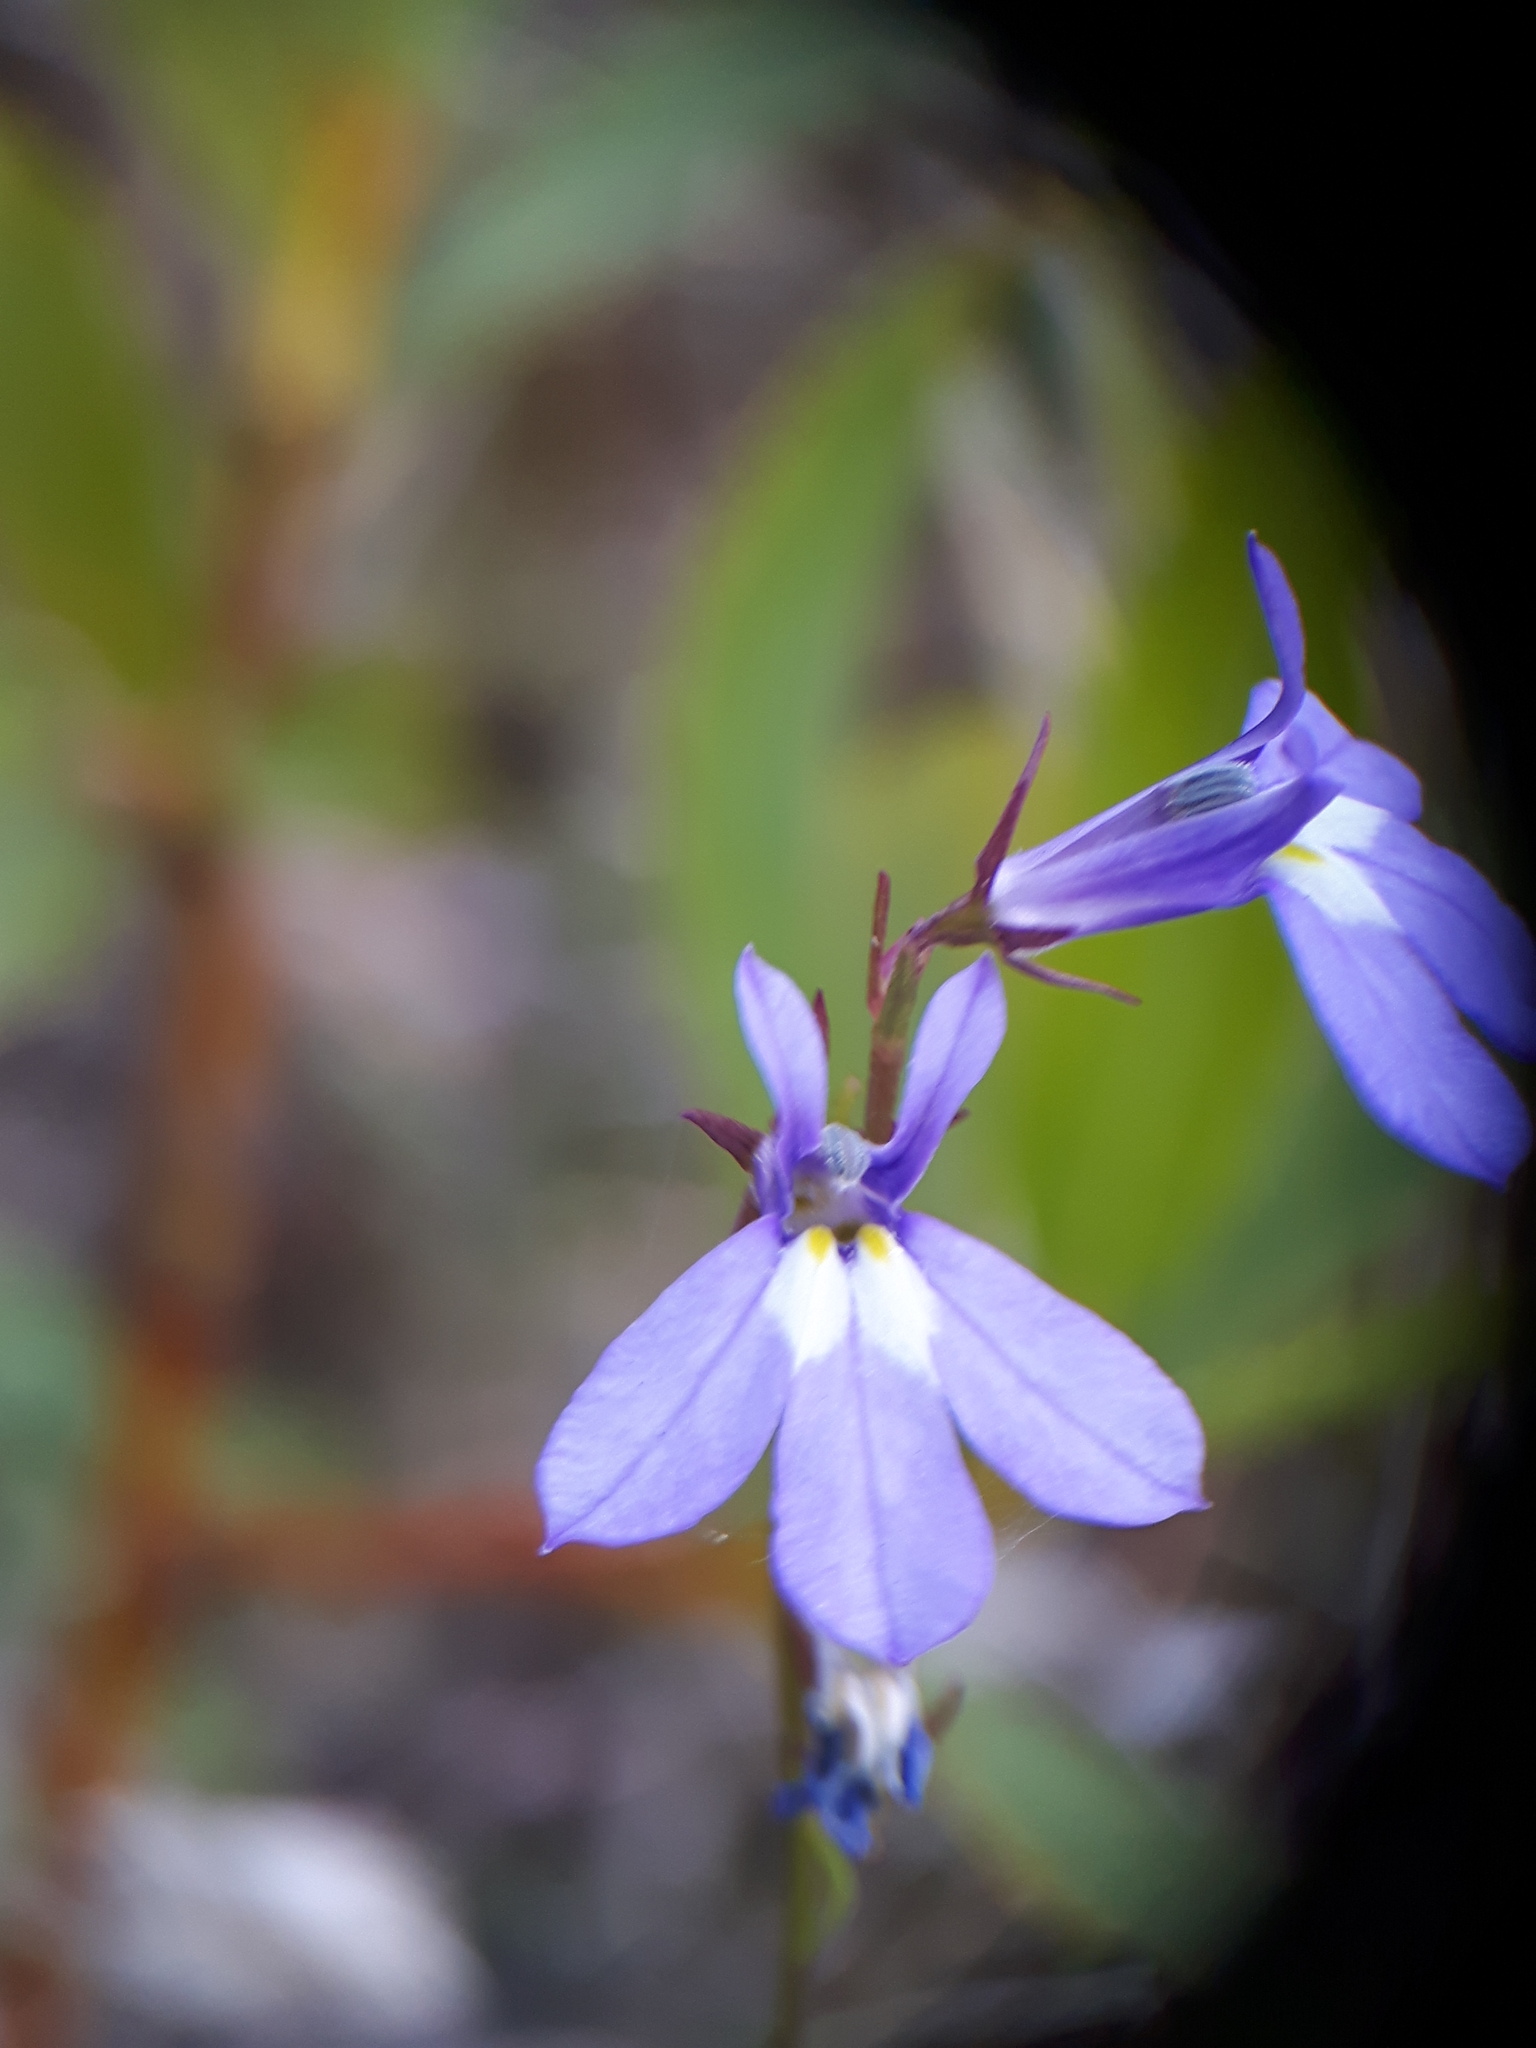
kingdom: Plantae
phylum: Tracheophyta
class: Magnoliopsida
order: Asterales
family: Campanulaceae
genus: Lobelia
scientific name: Lobelia kalmii
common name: Kalm's lobelia
